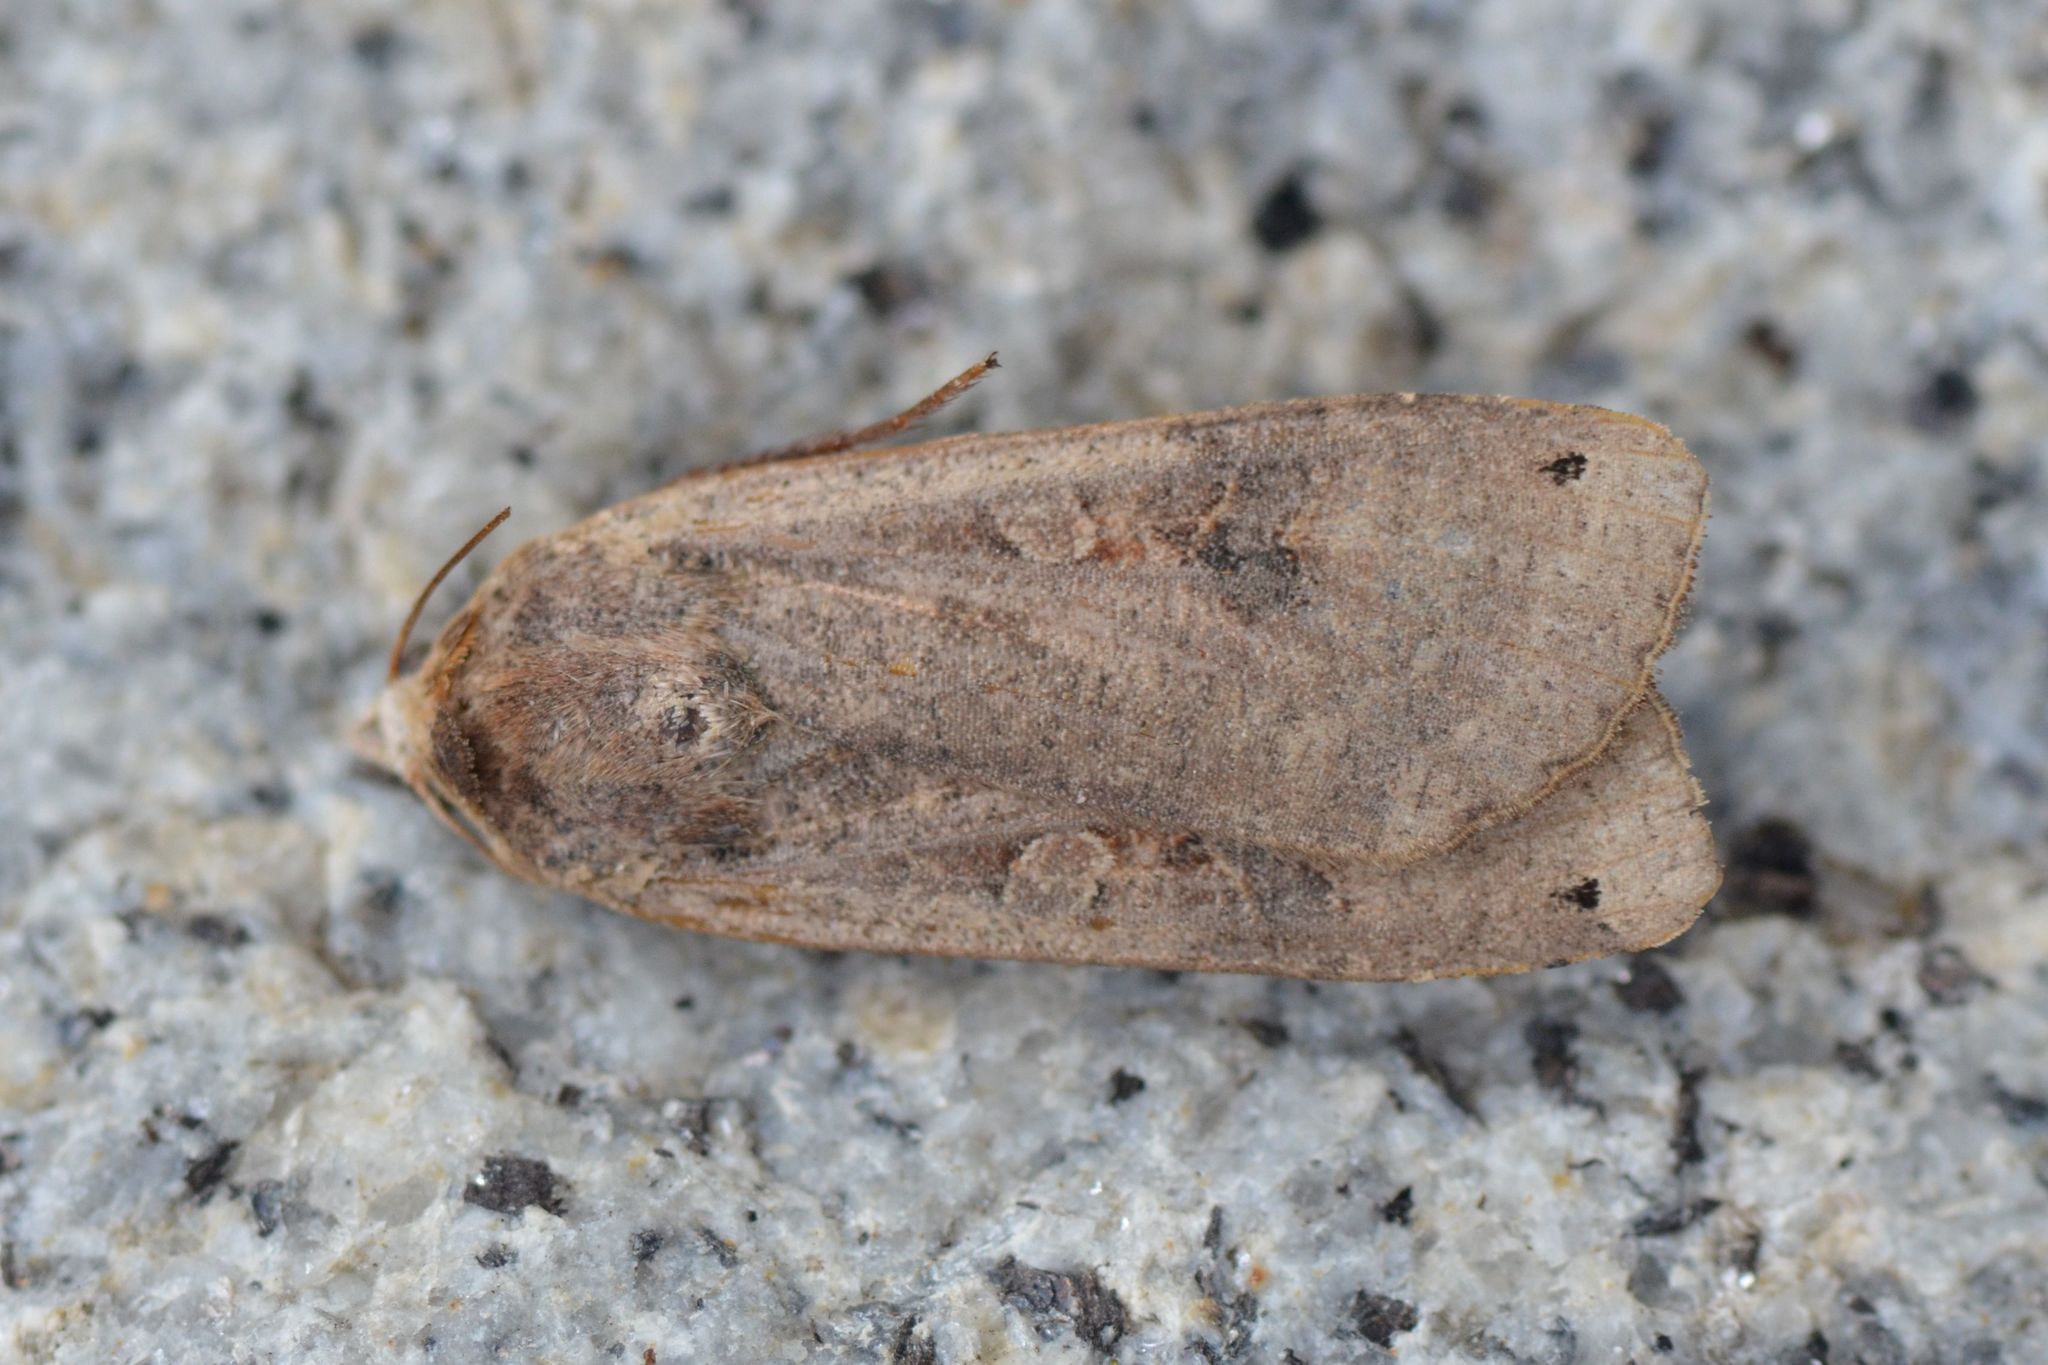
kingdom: Animalia
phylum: Arthropoda
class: Insecta
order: Lepidoptera
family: Noctuidae
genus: Noctua
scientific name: Noctua pronuba
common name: Large yellow underwing
